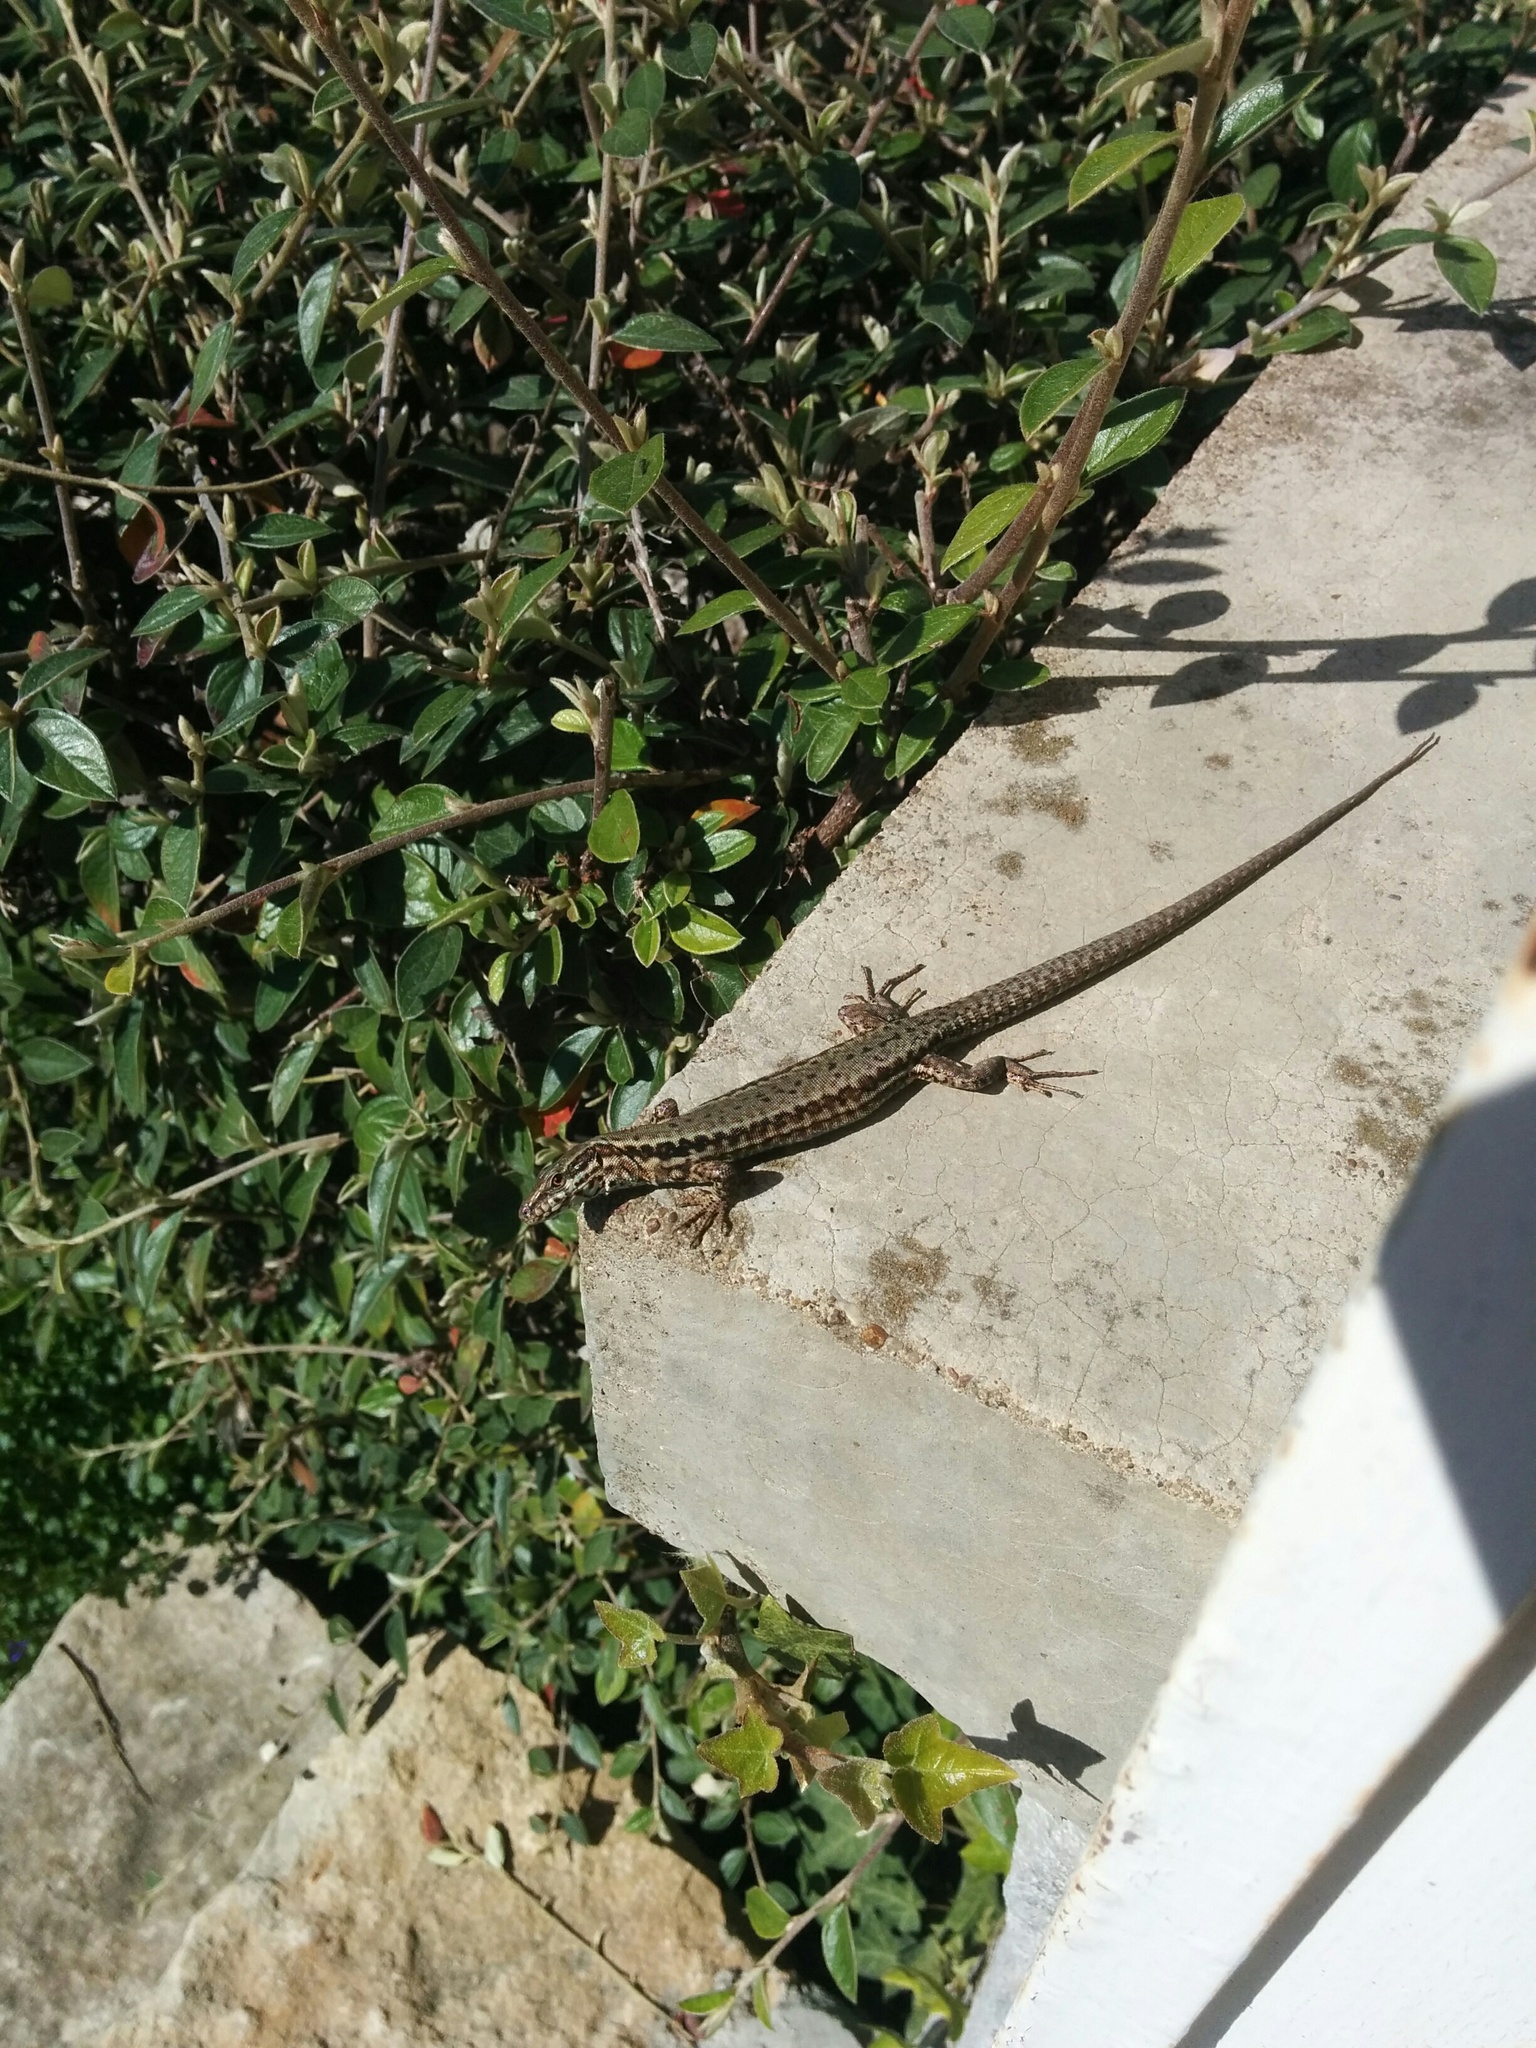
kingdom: Animalia
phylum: Chordata
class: Squamata
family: Lacertidae
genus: Podarcis
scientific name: Podarcis muralis
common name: Common wall lizard
